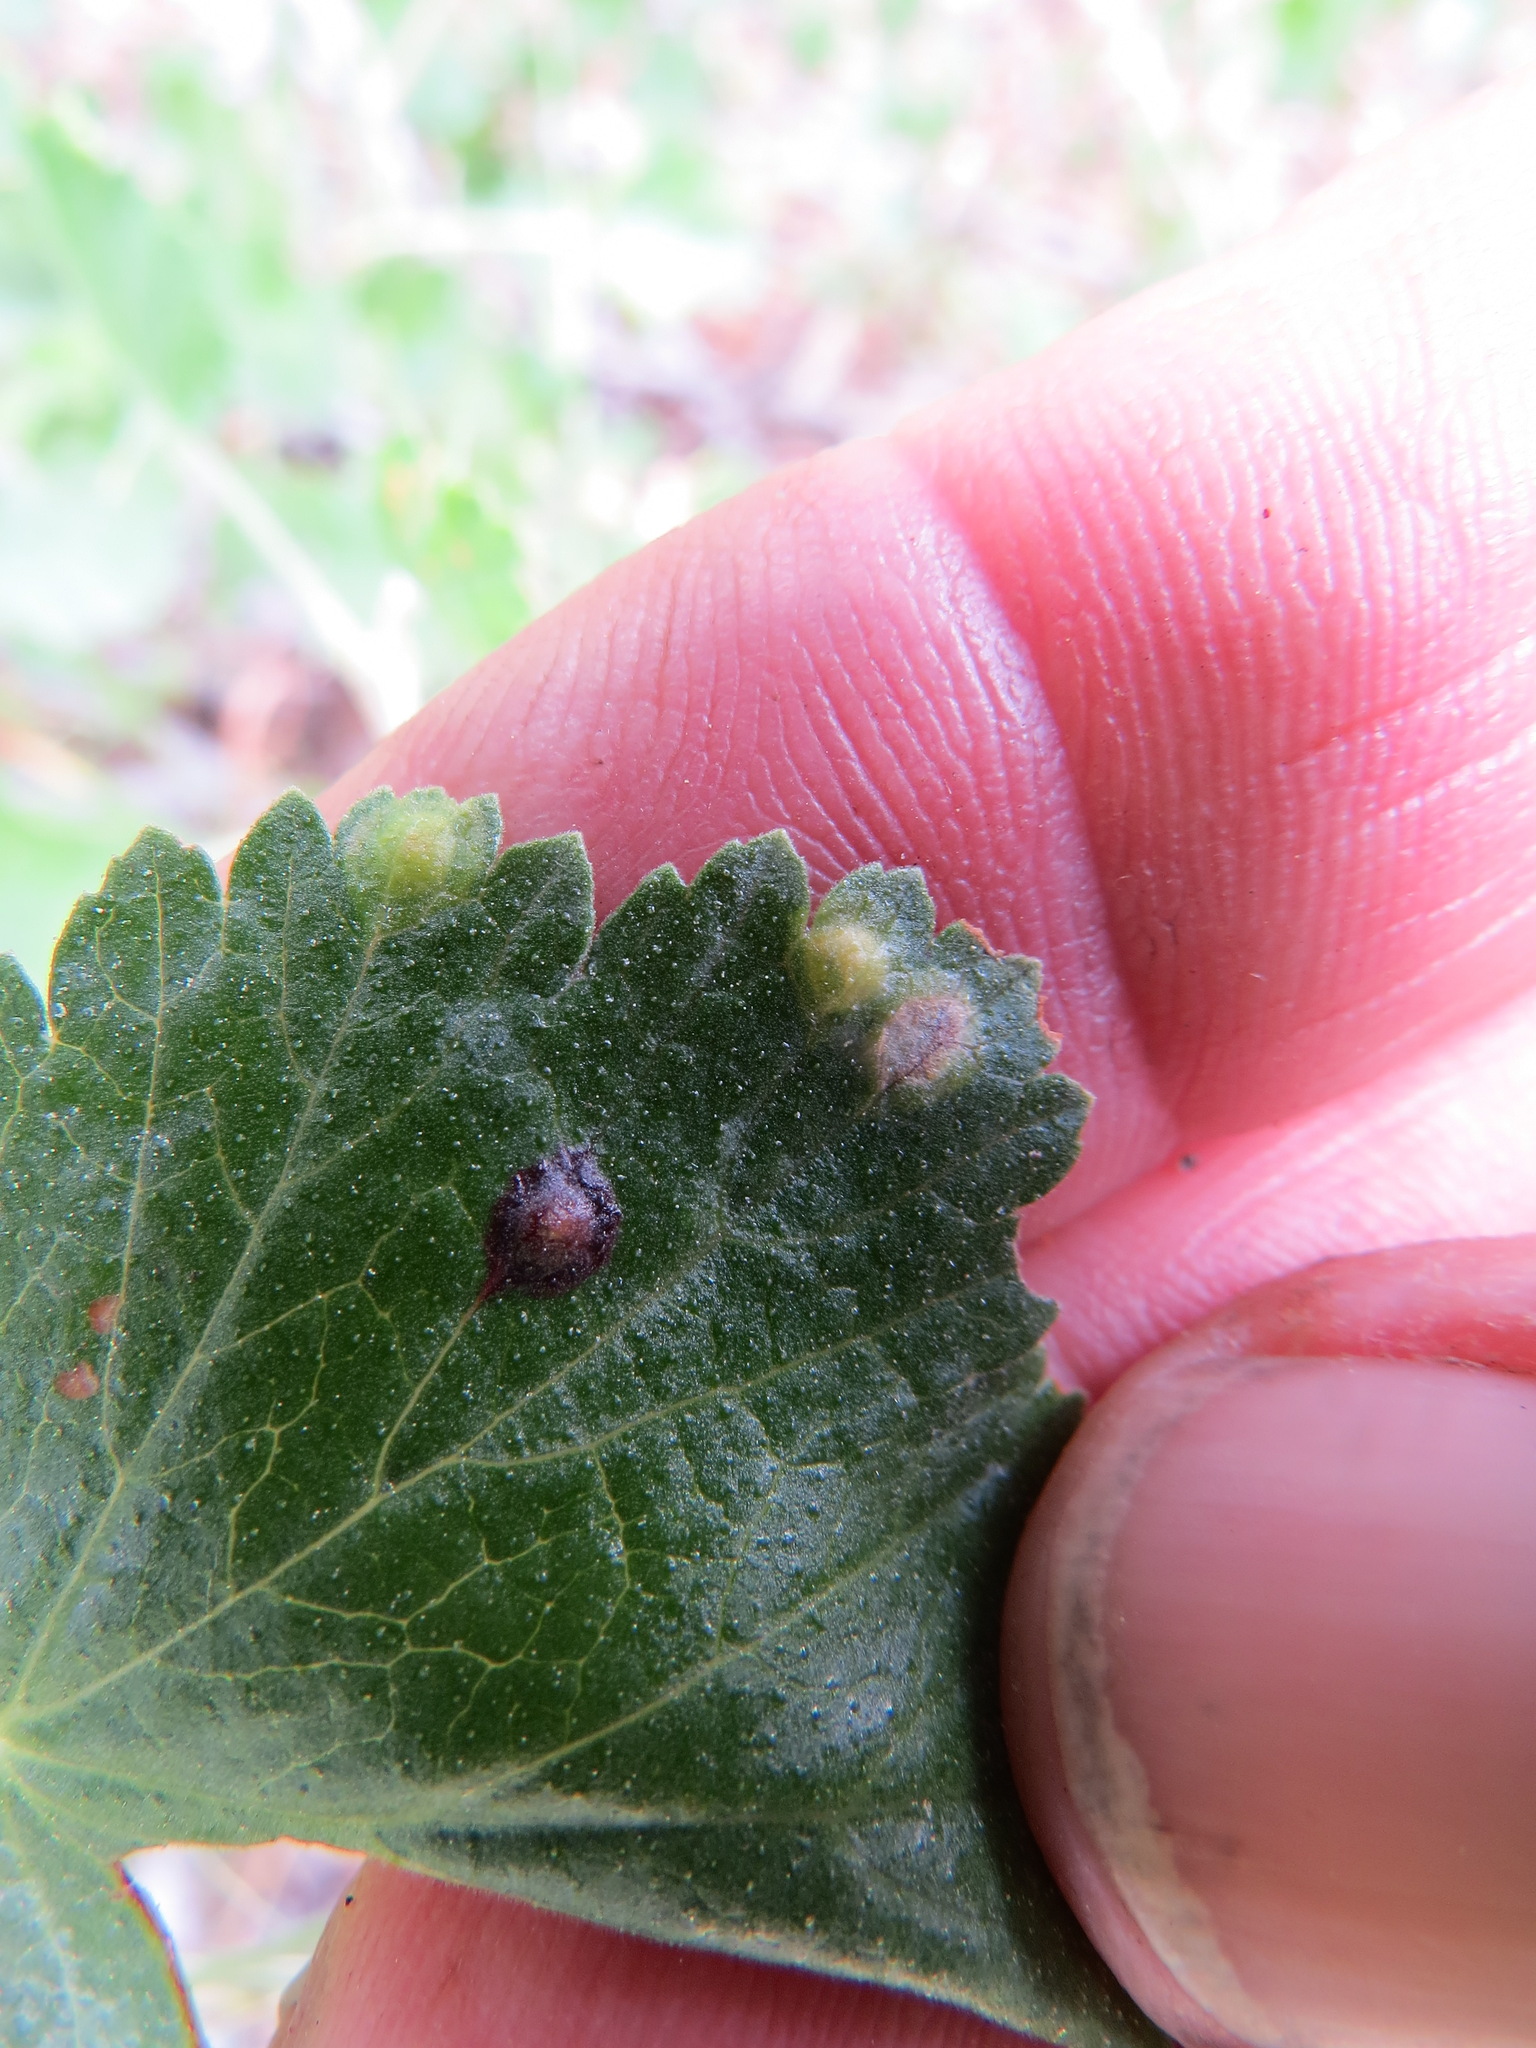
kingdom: Animalia
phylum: Arthropoda
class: Insecta
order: Diptera
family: Cecidomyiidae
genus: Ribesia
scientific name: Ribesia
